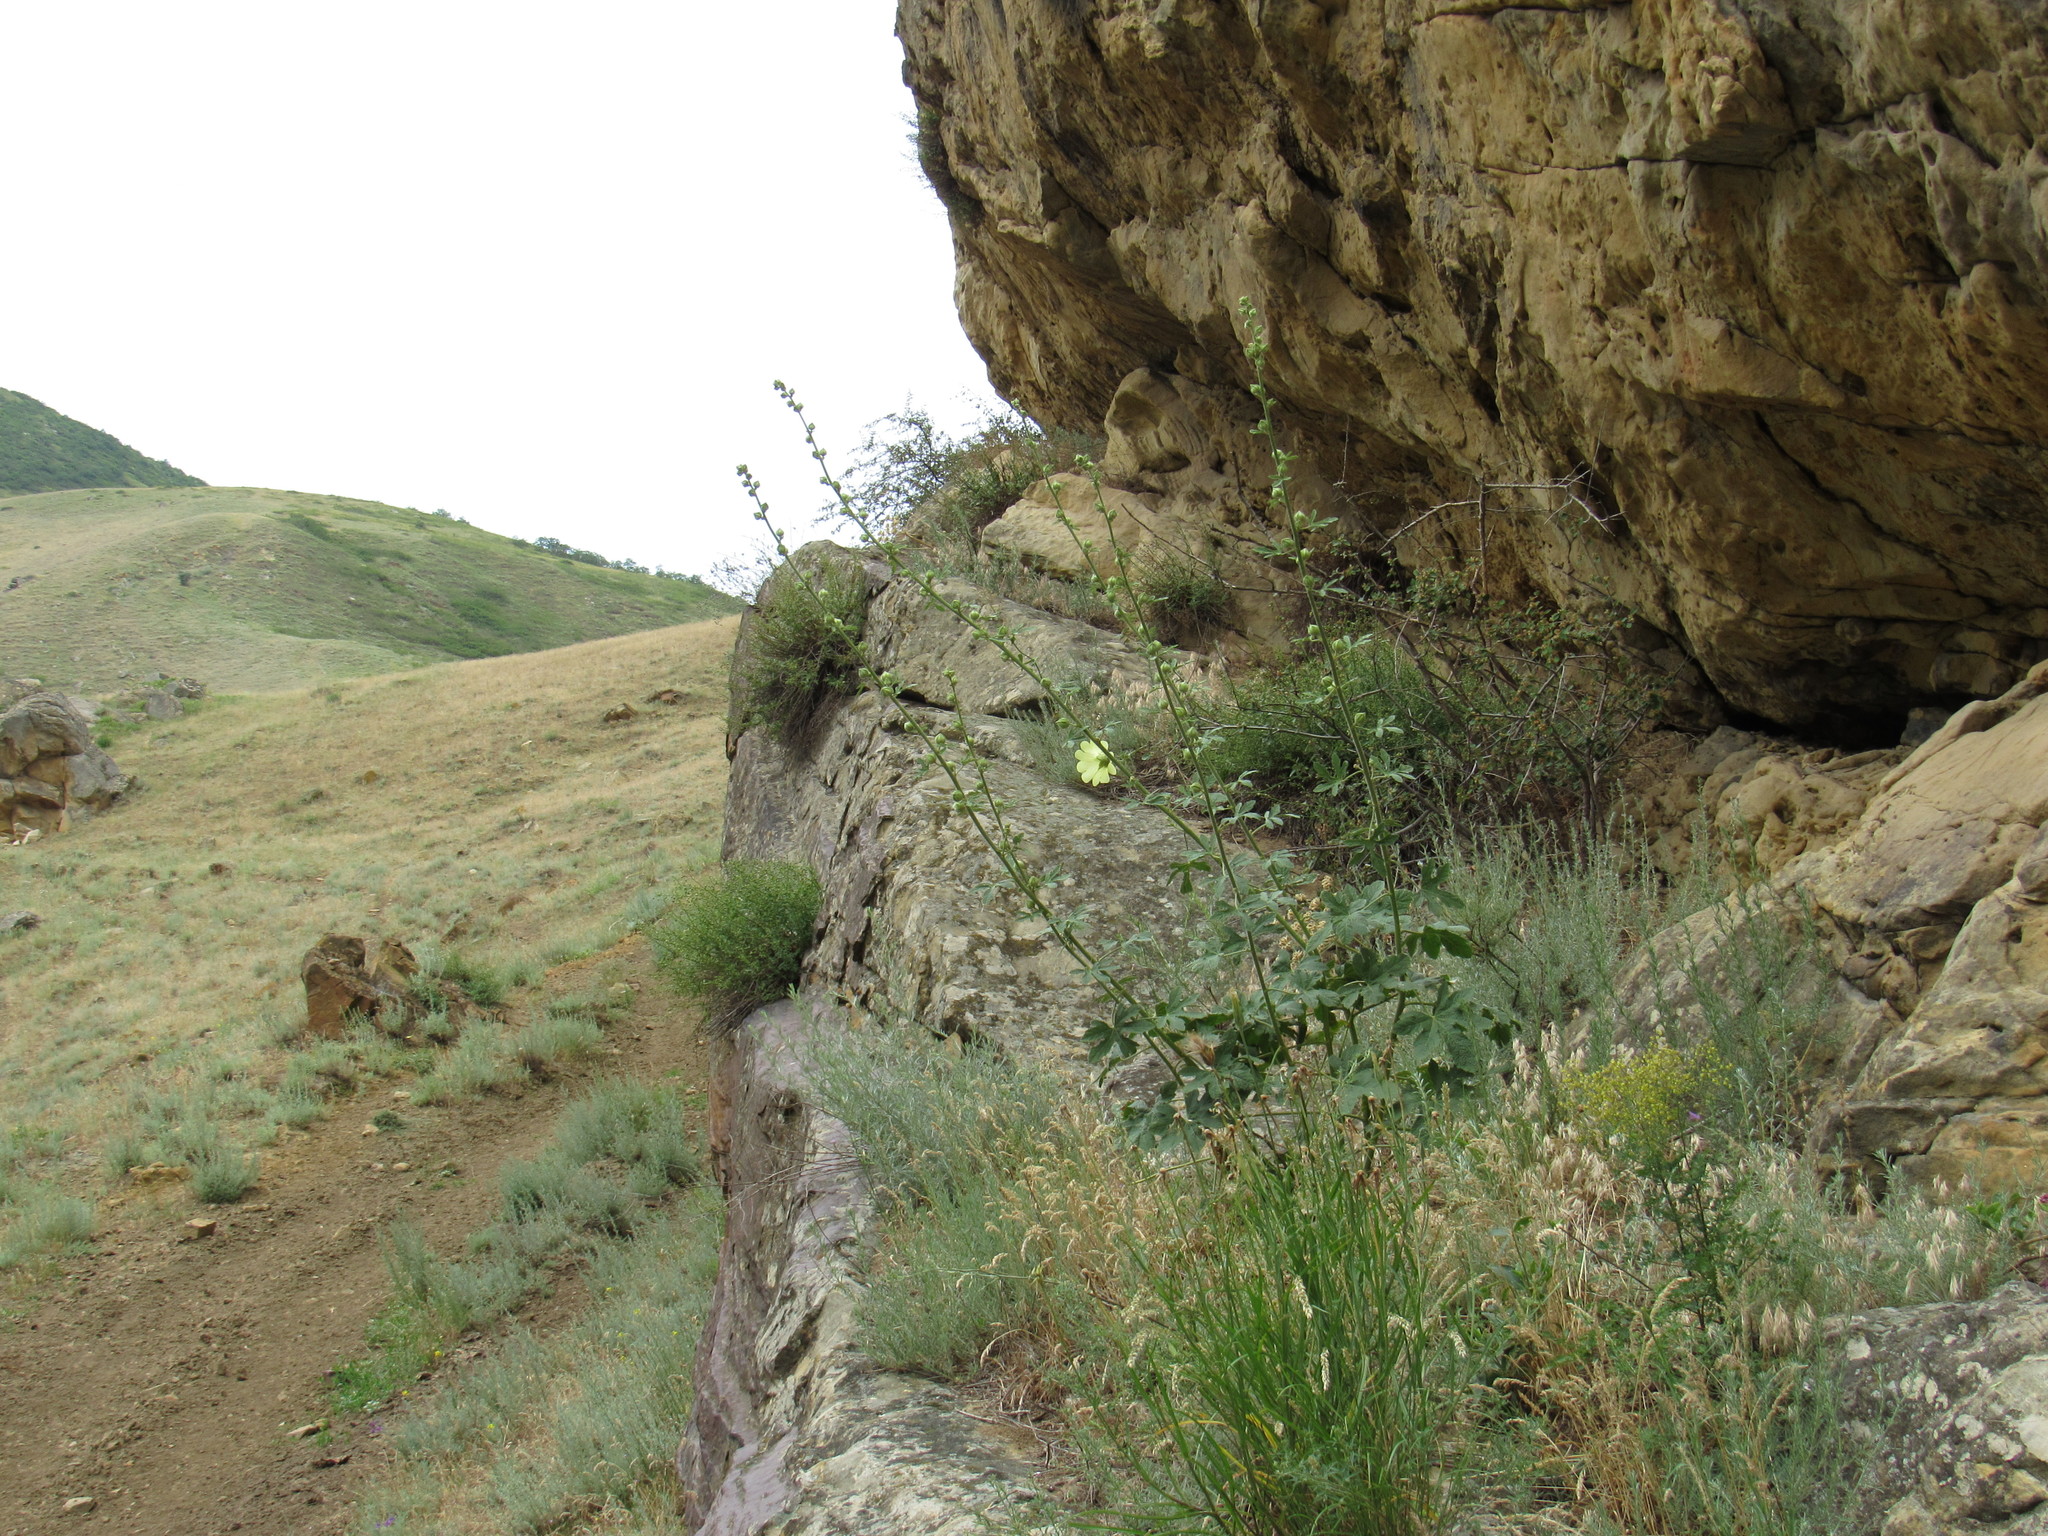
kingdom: Plantae
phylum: Tracheophyta
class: Magnoliopsida
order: Malvales
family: Malvaceae
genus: Alcea
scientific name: Alcea rugosa
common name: Russian hollyhock
